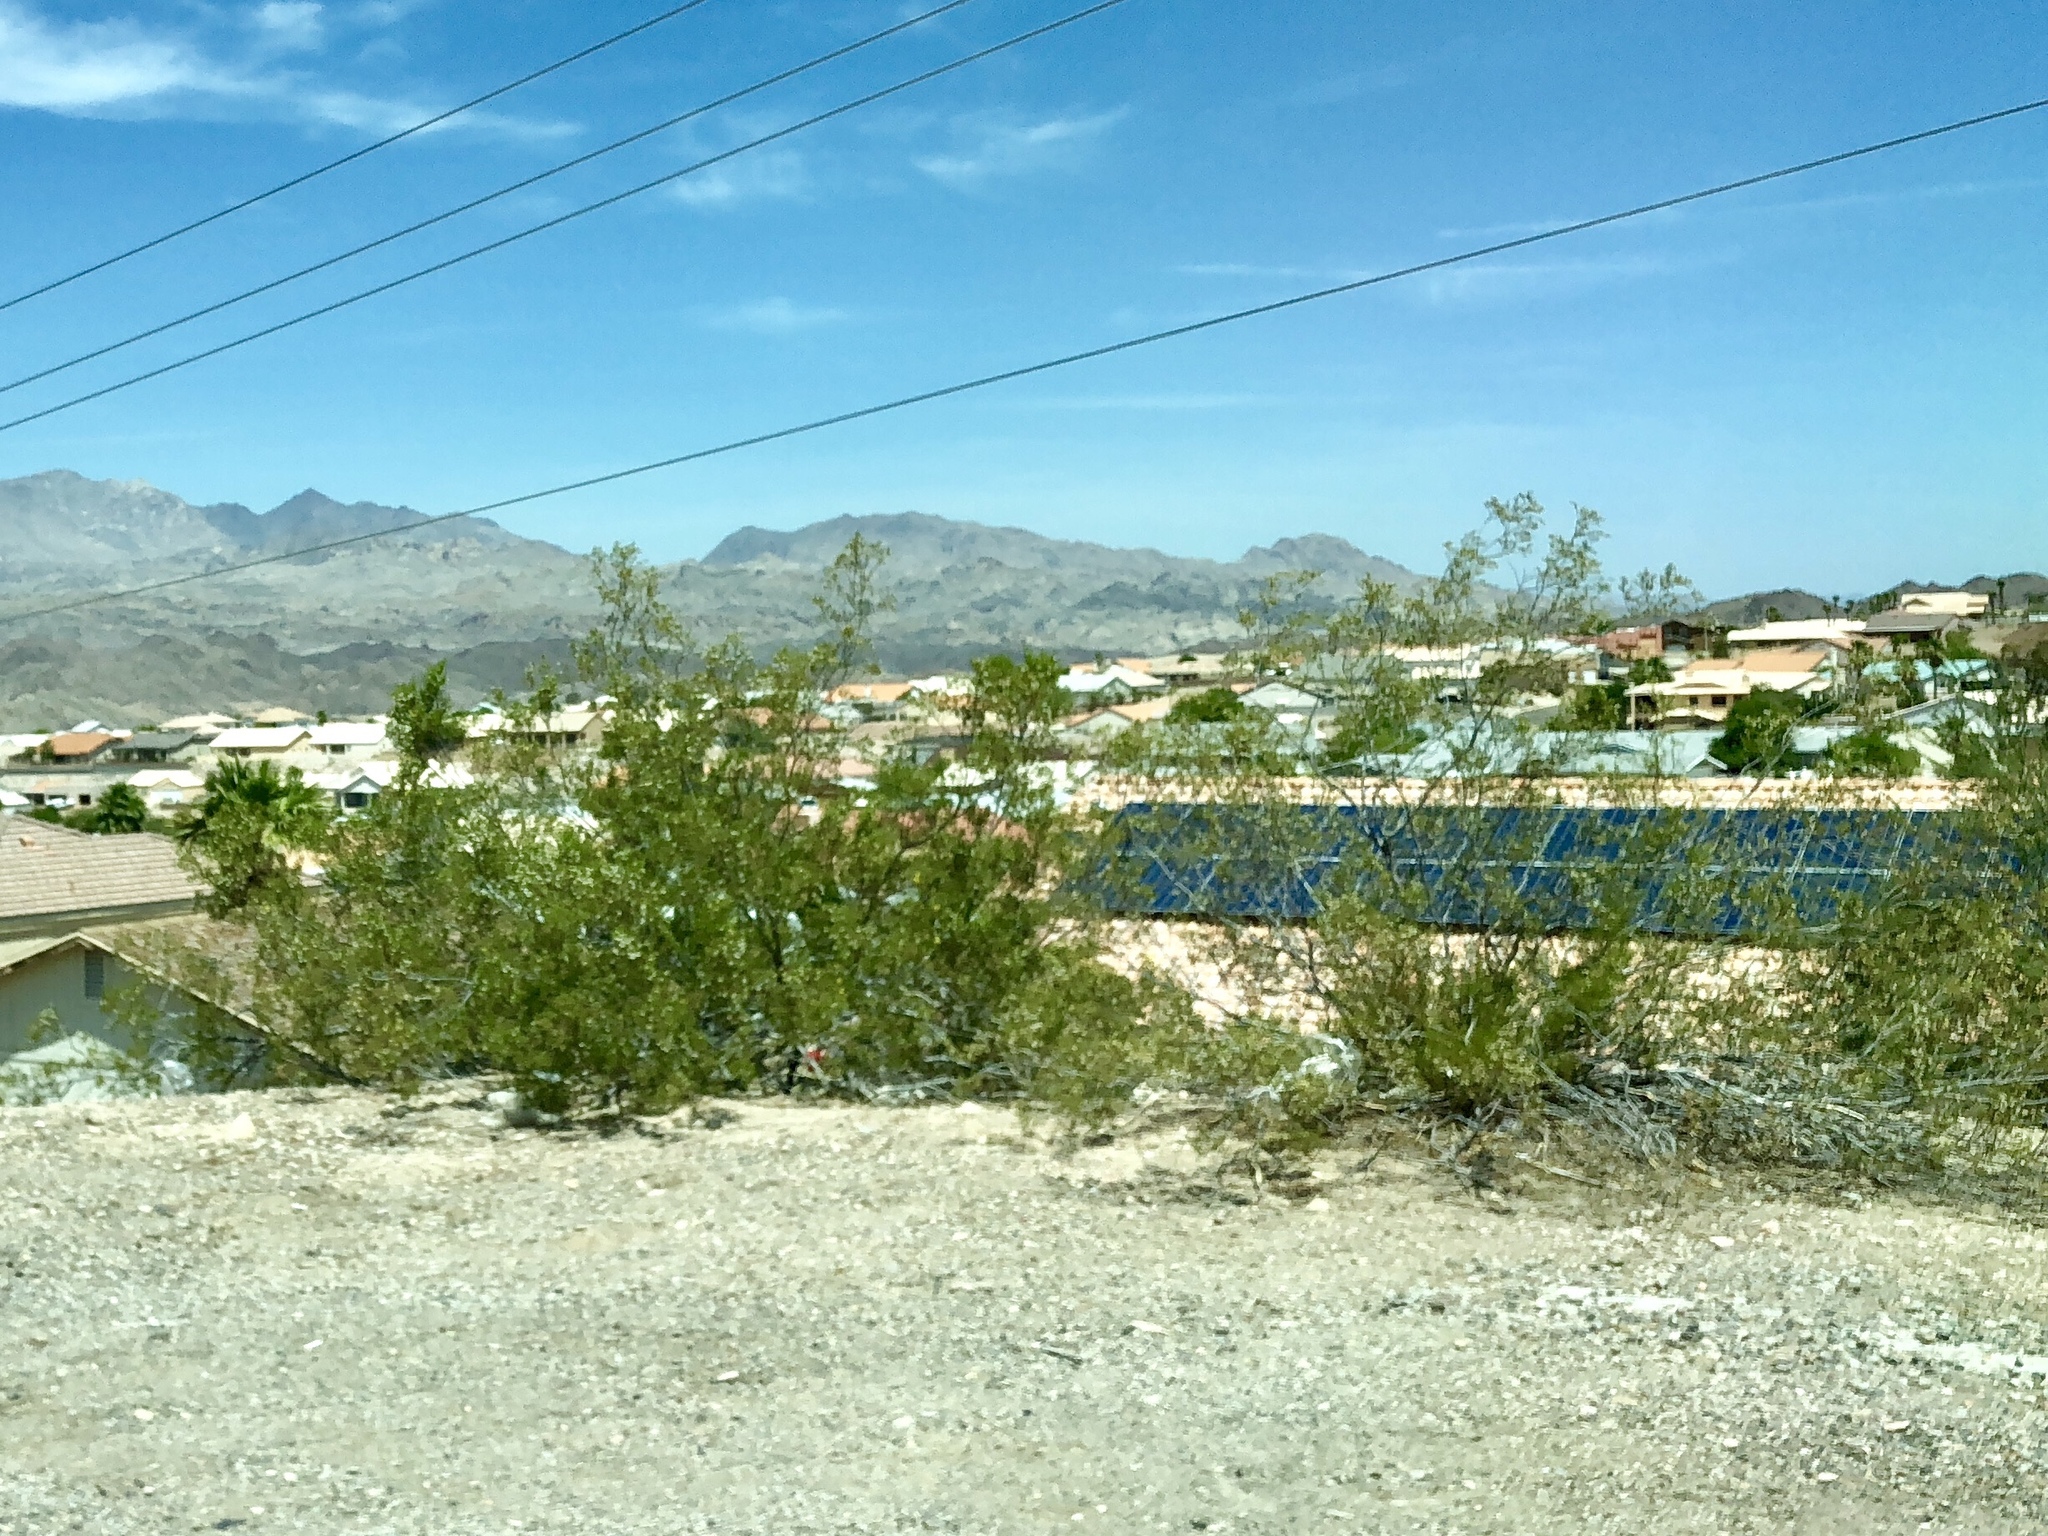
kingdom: Plantae
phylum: Tracheophyta
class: Magnoliopsida
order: Zygophyllales
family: Zygophyllaceae
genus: Larrea
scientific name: Larrea tridentata
